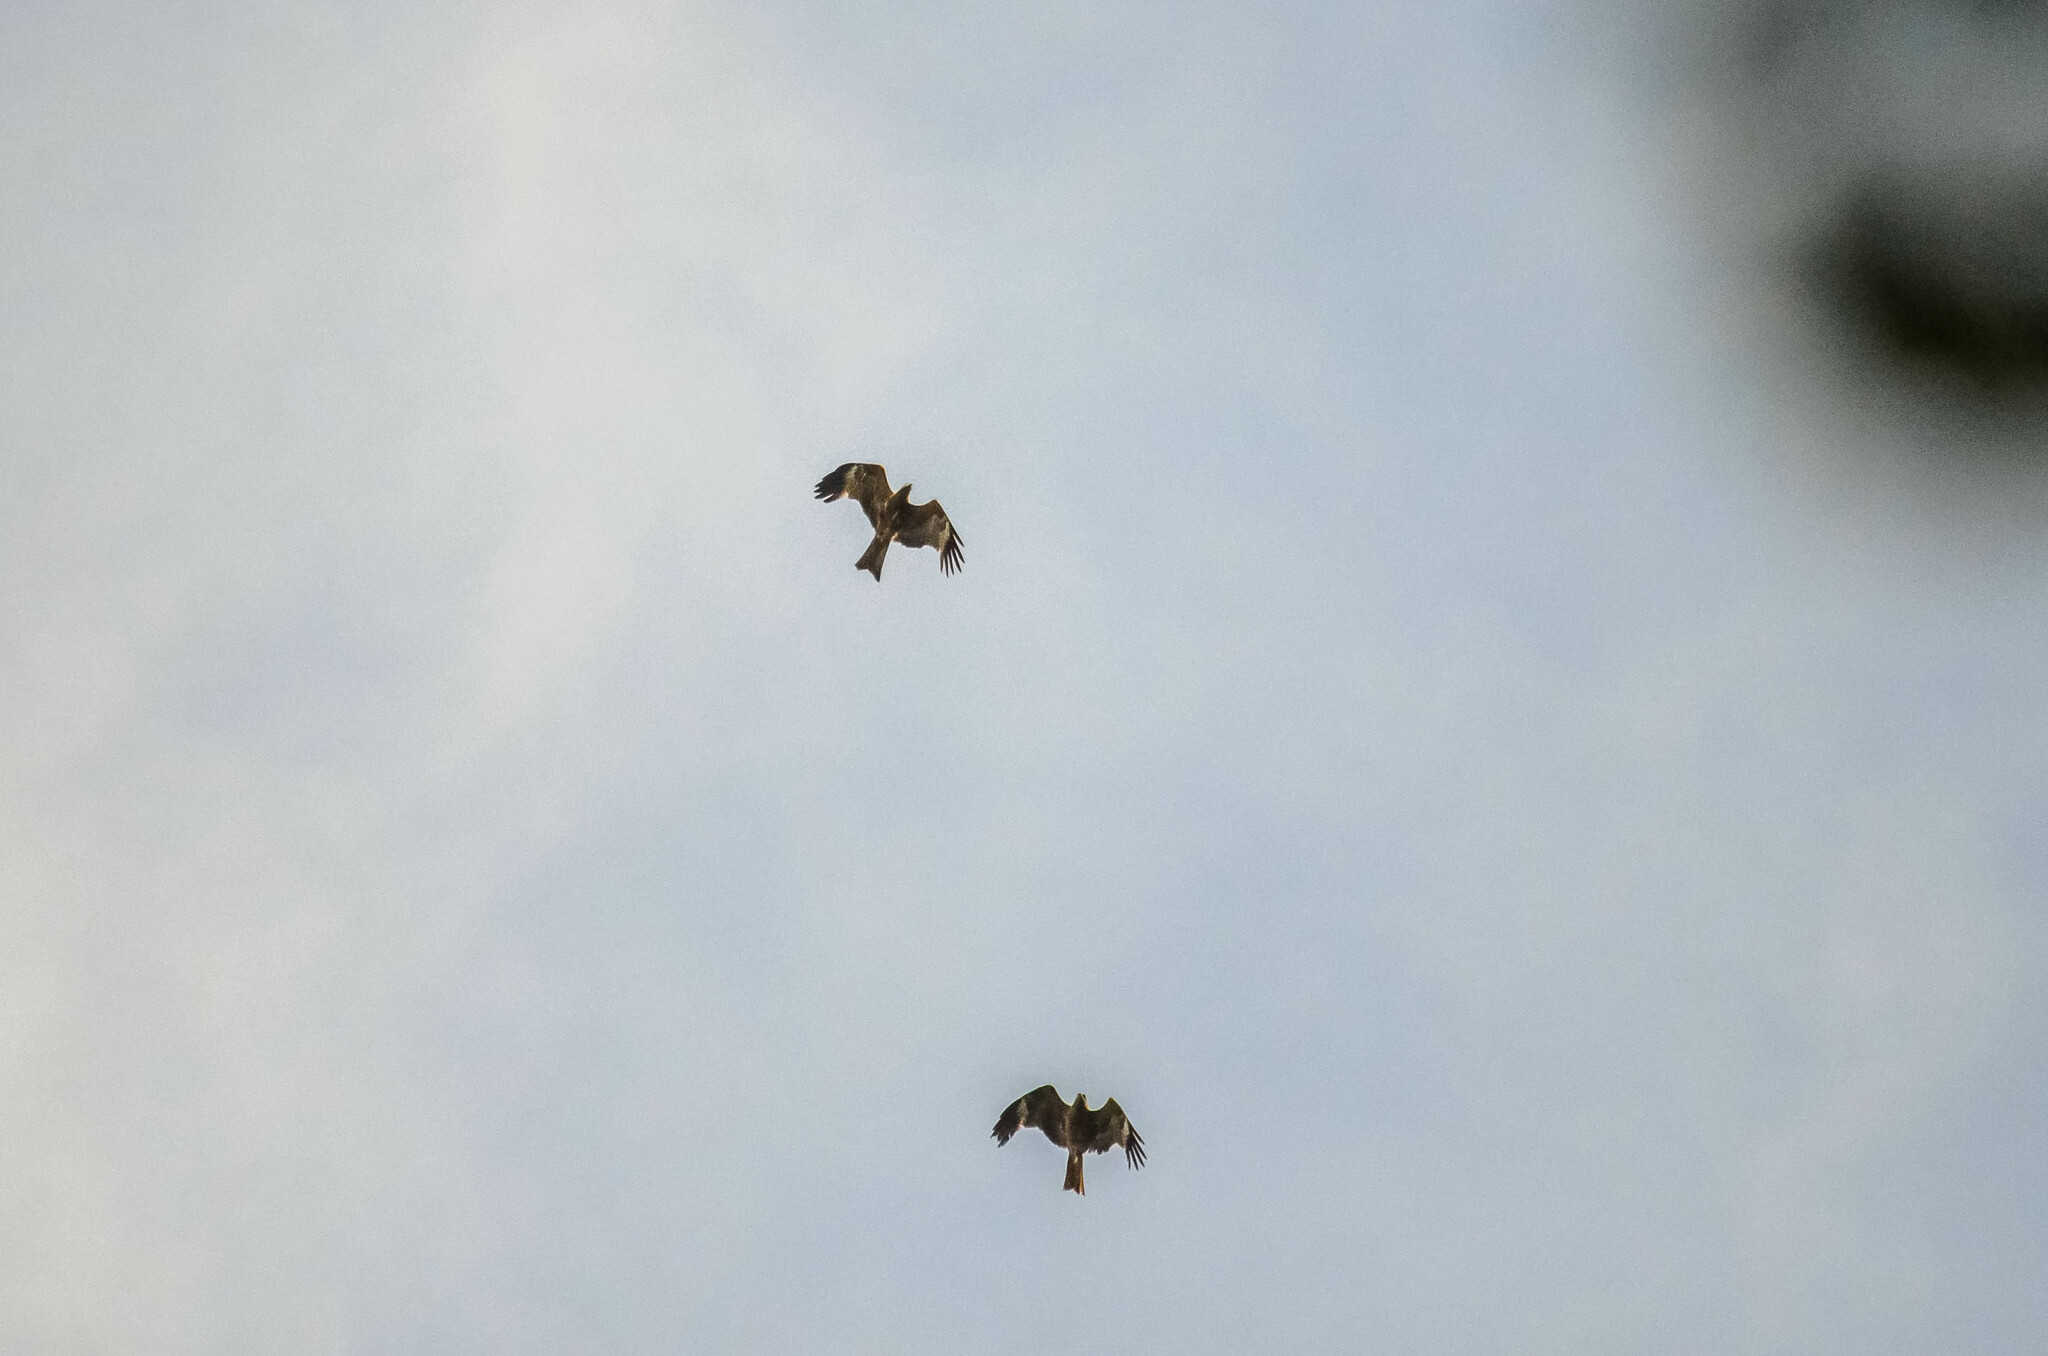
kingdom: Animalia
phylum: Chordata
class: Aves
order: Accipitriformes
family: Accipitridae
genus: Milvus
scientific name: Milvus migrans
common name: Black kite
